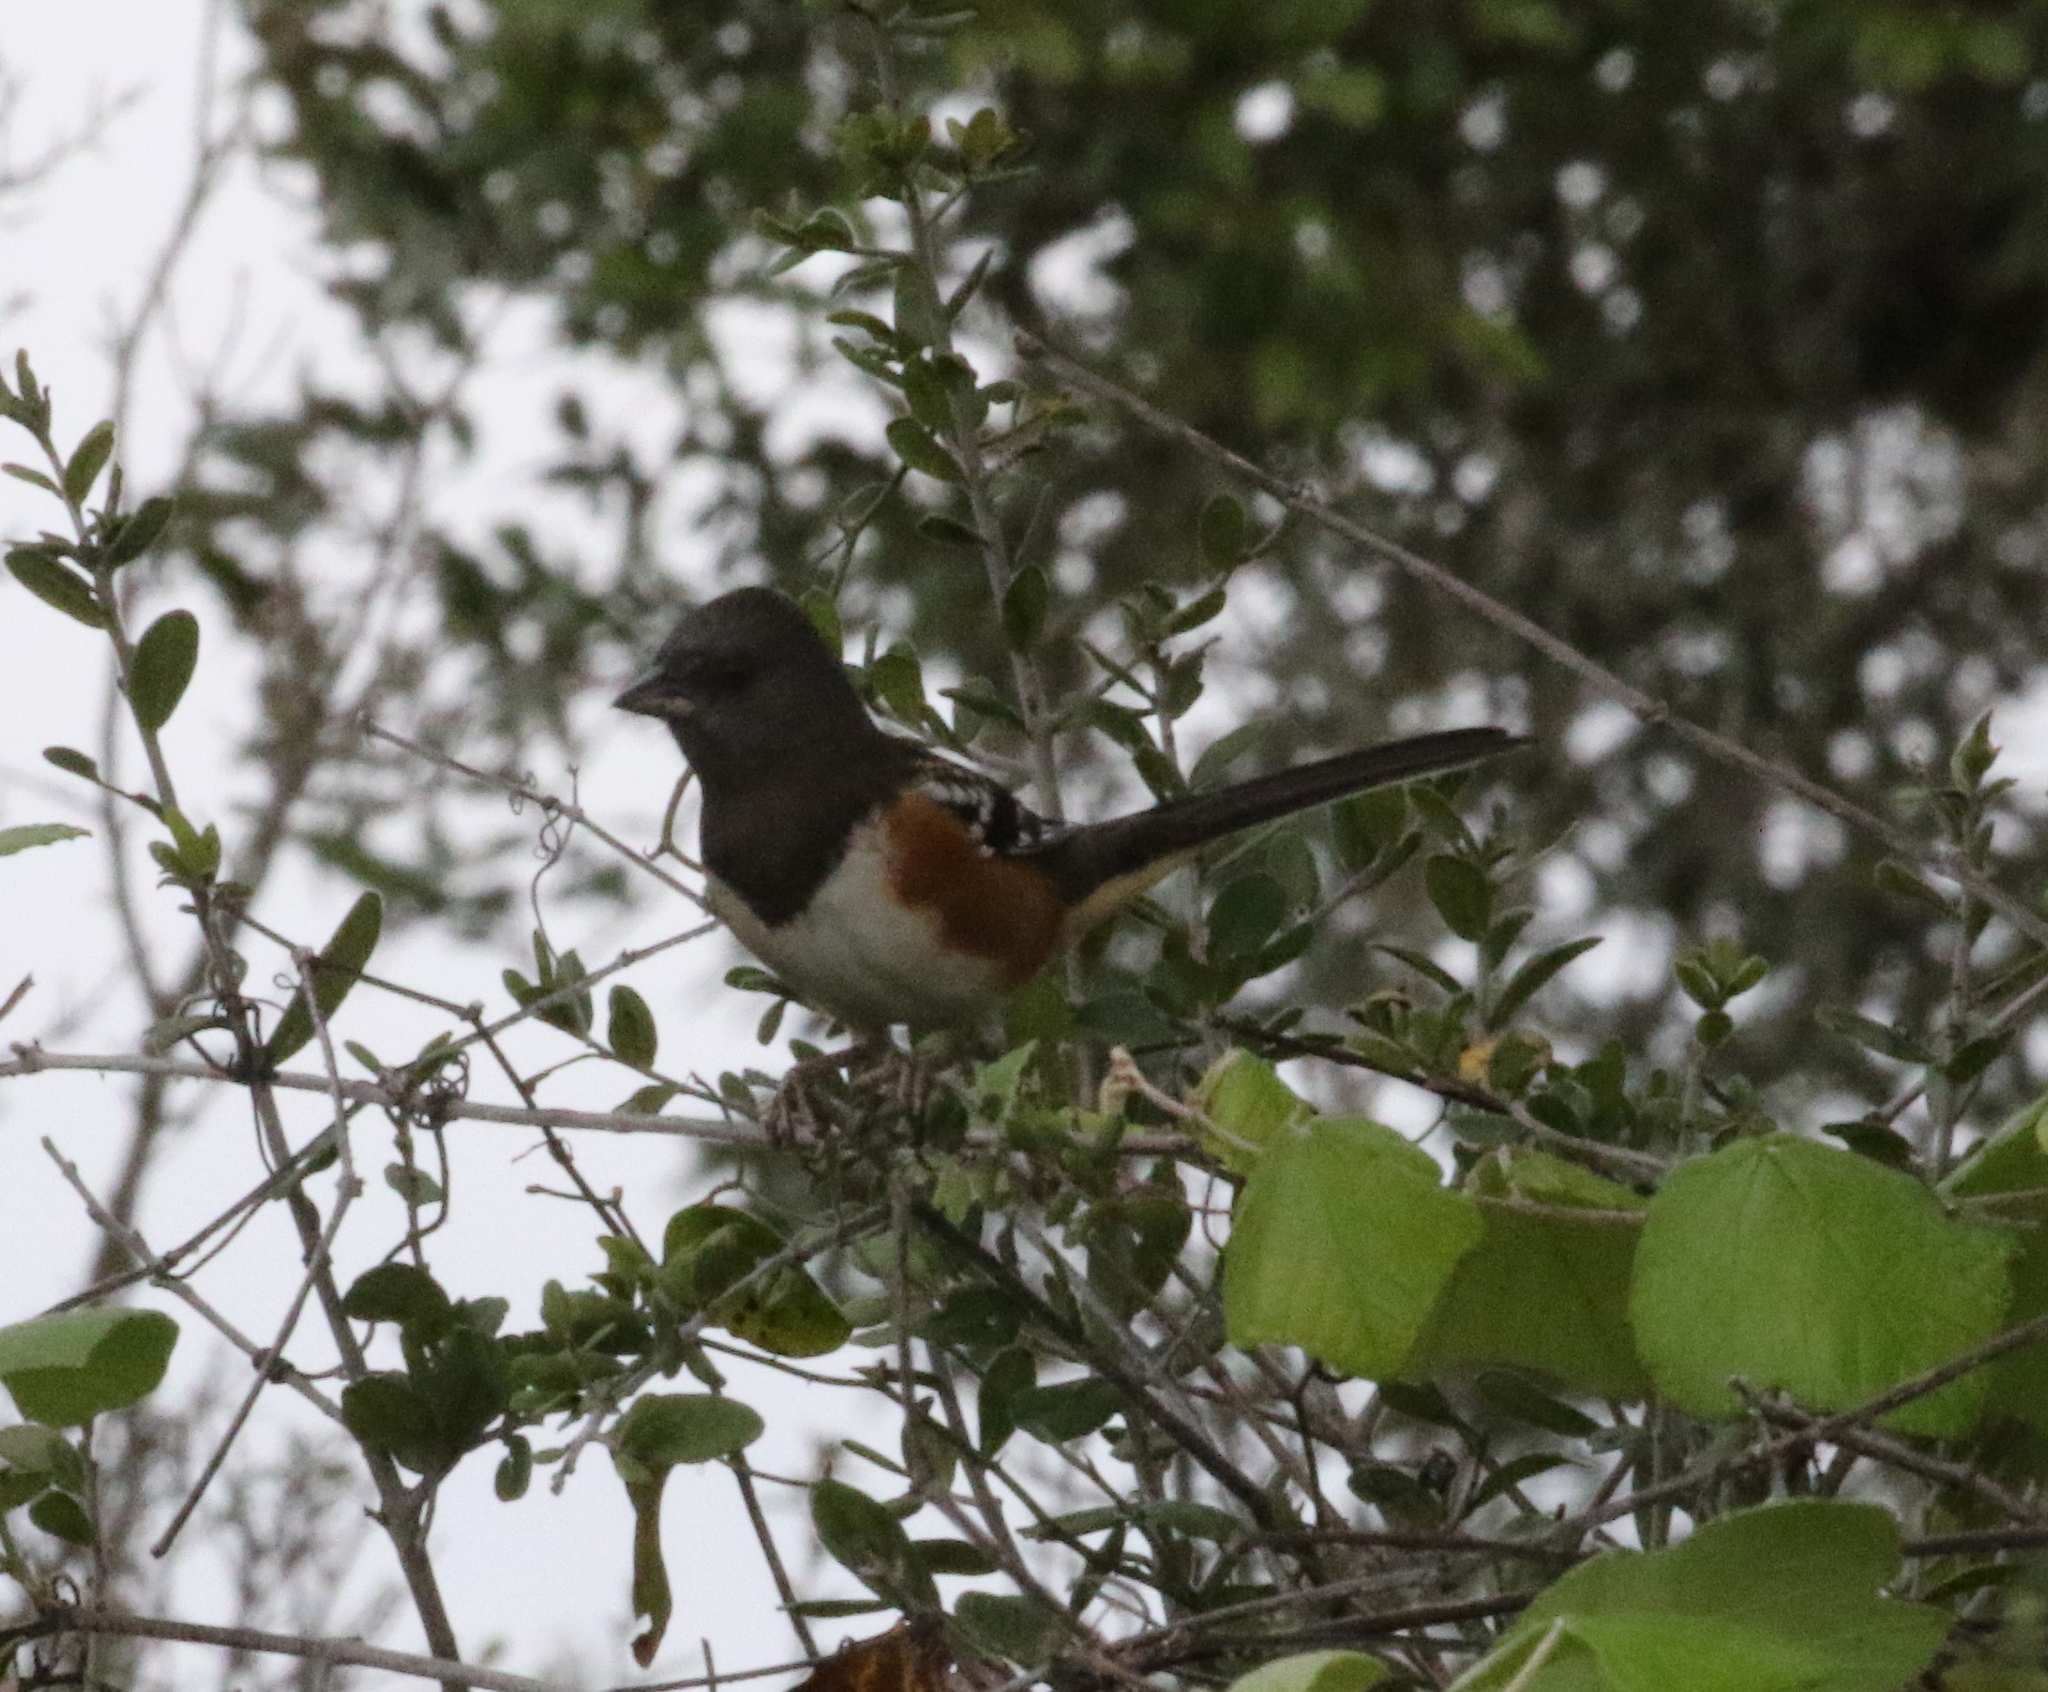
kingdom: Animalia
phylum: Chordata
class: Aves
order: Passeriformes
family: Passerellidae
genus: Pipilo
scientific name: Pipilo maculatus
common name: Spotted towhee
